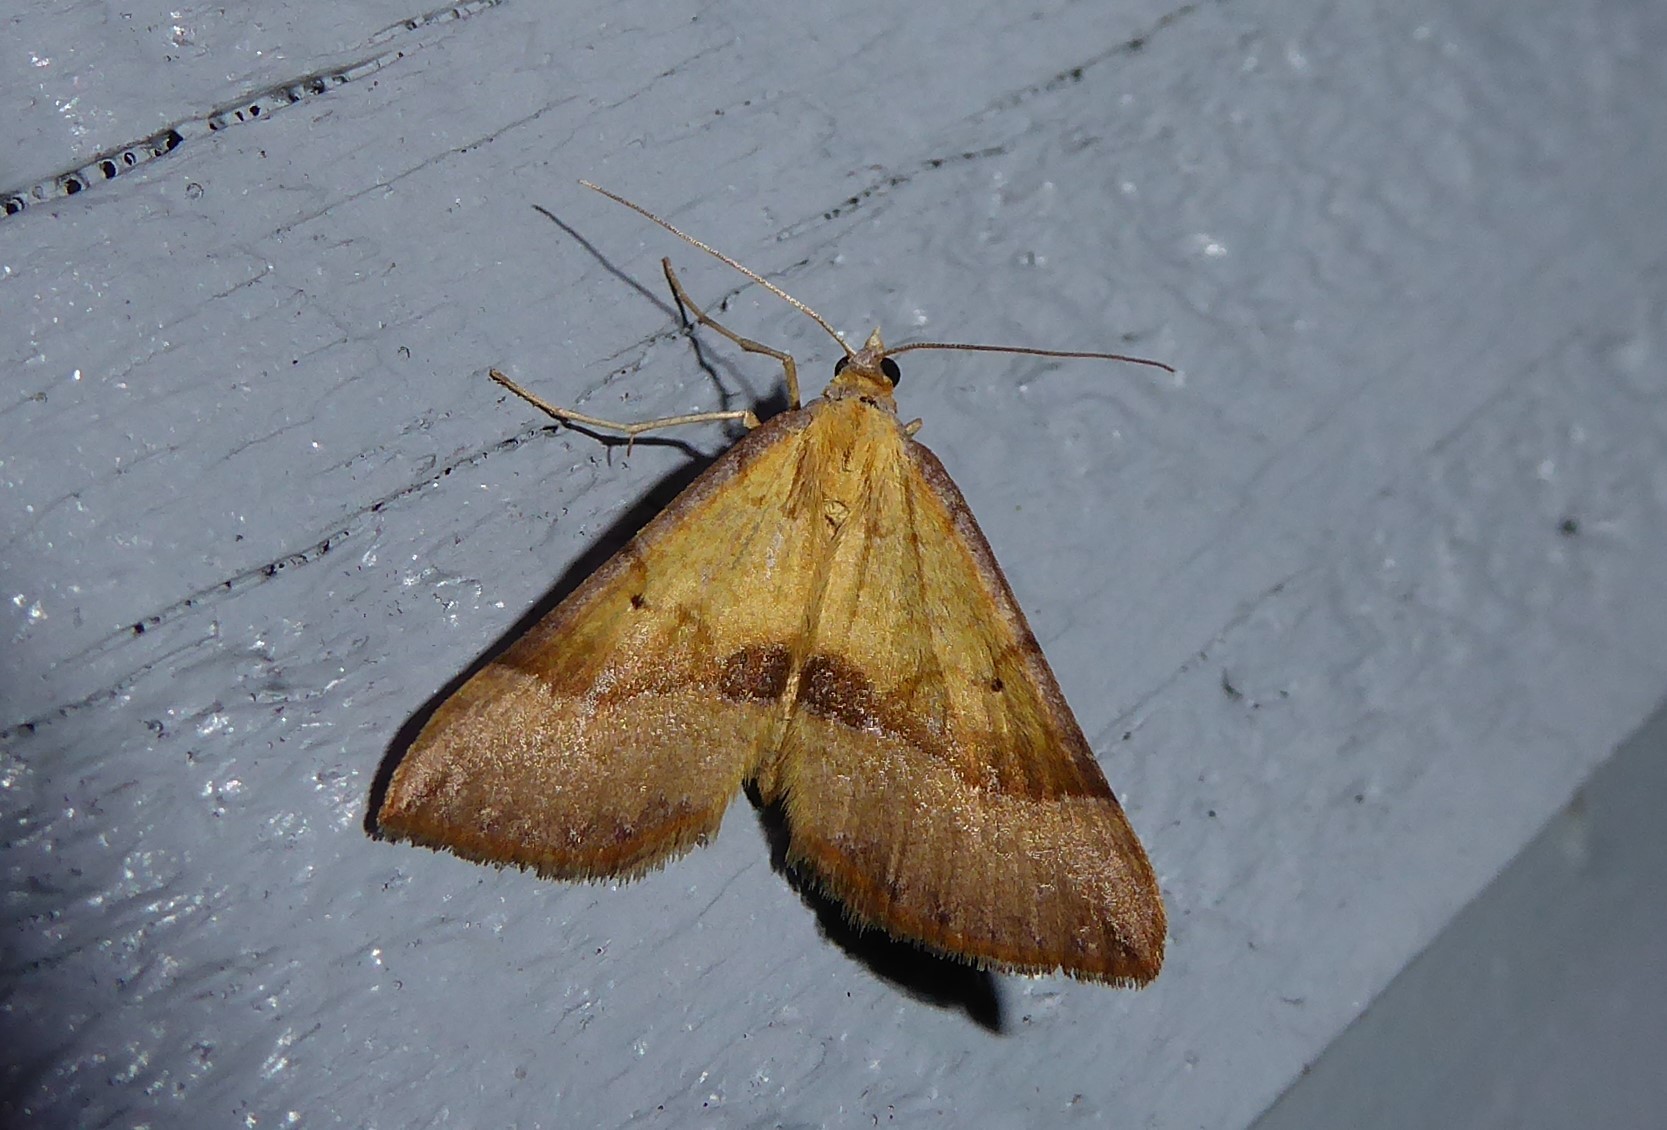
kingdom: Animalia
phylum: Arthropoda
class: Insecta
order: Lepidoptera
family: Geometridae
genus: Anachloris
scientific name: Anachloris subochraria
